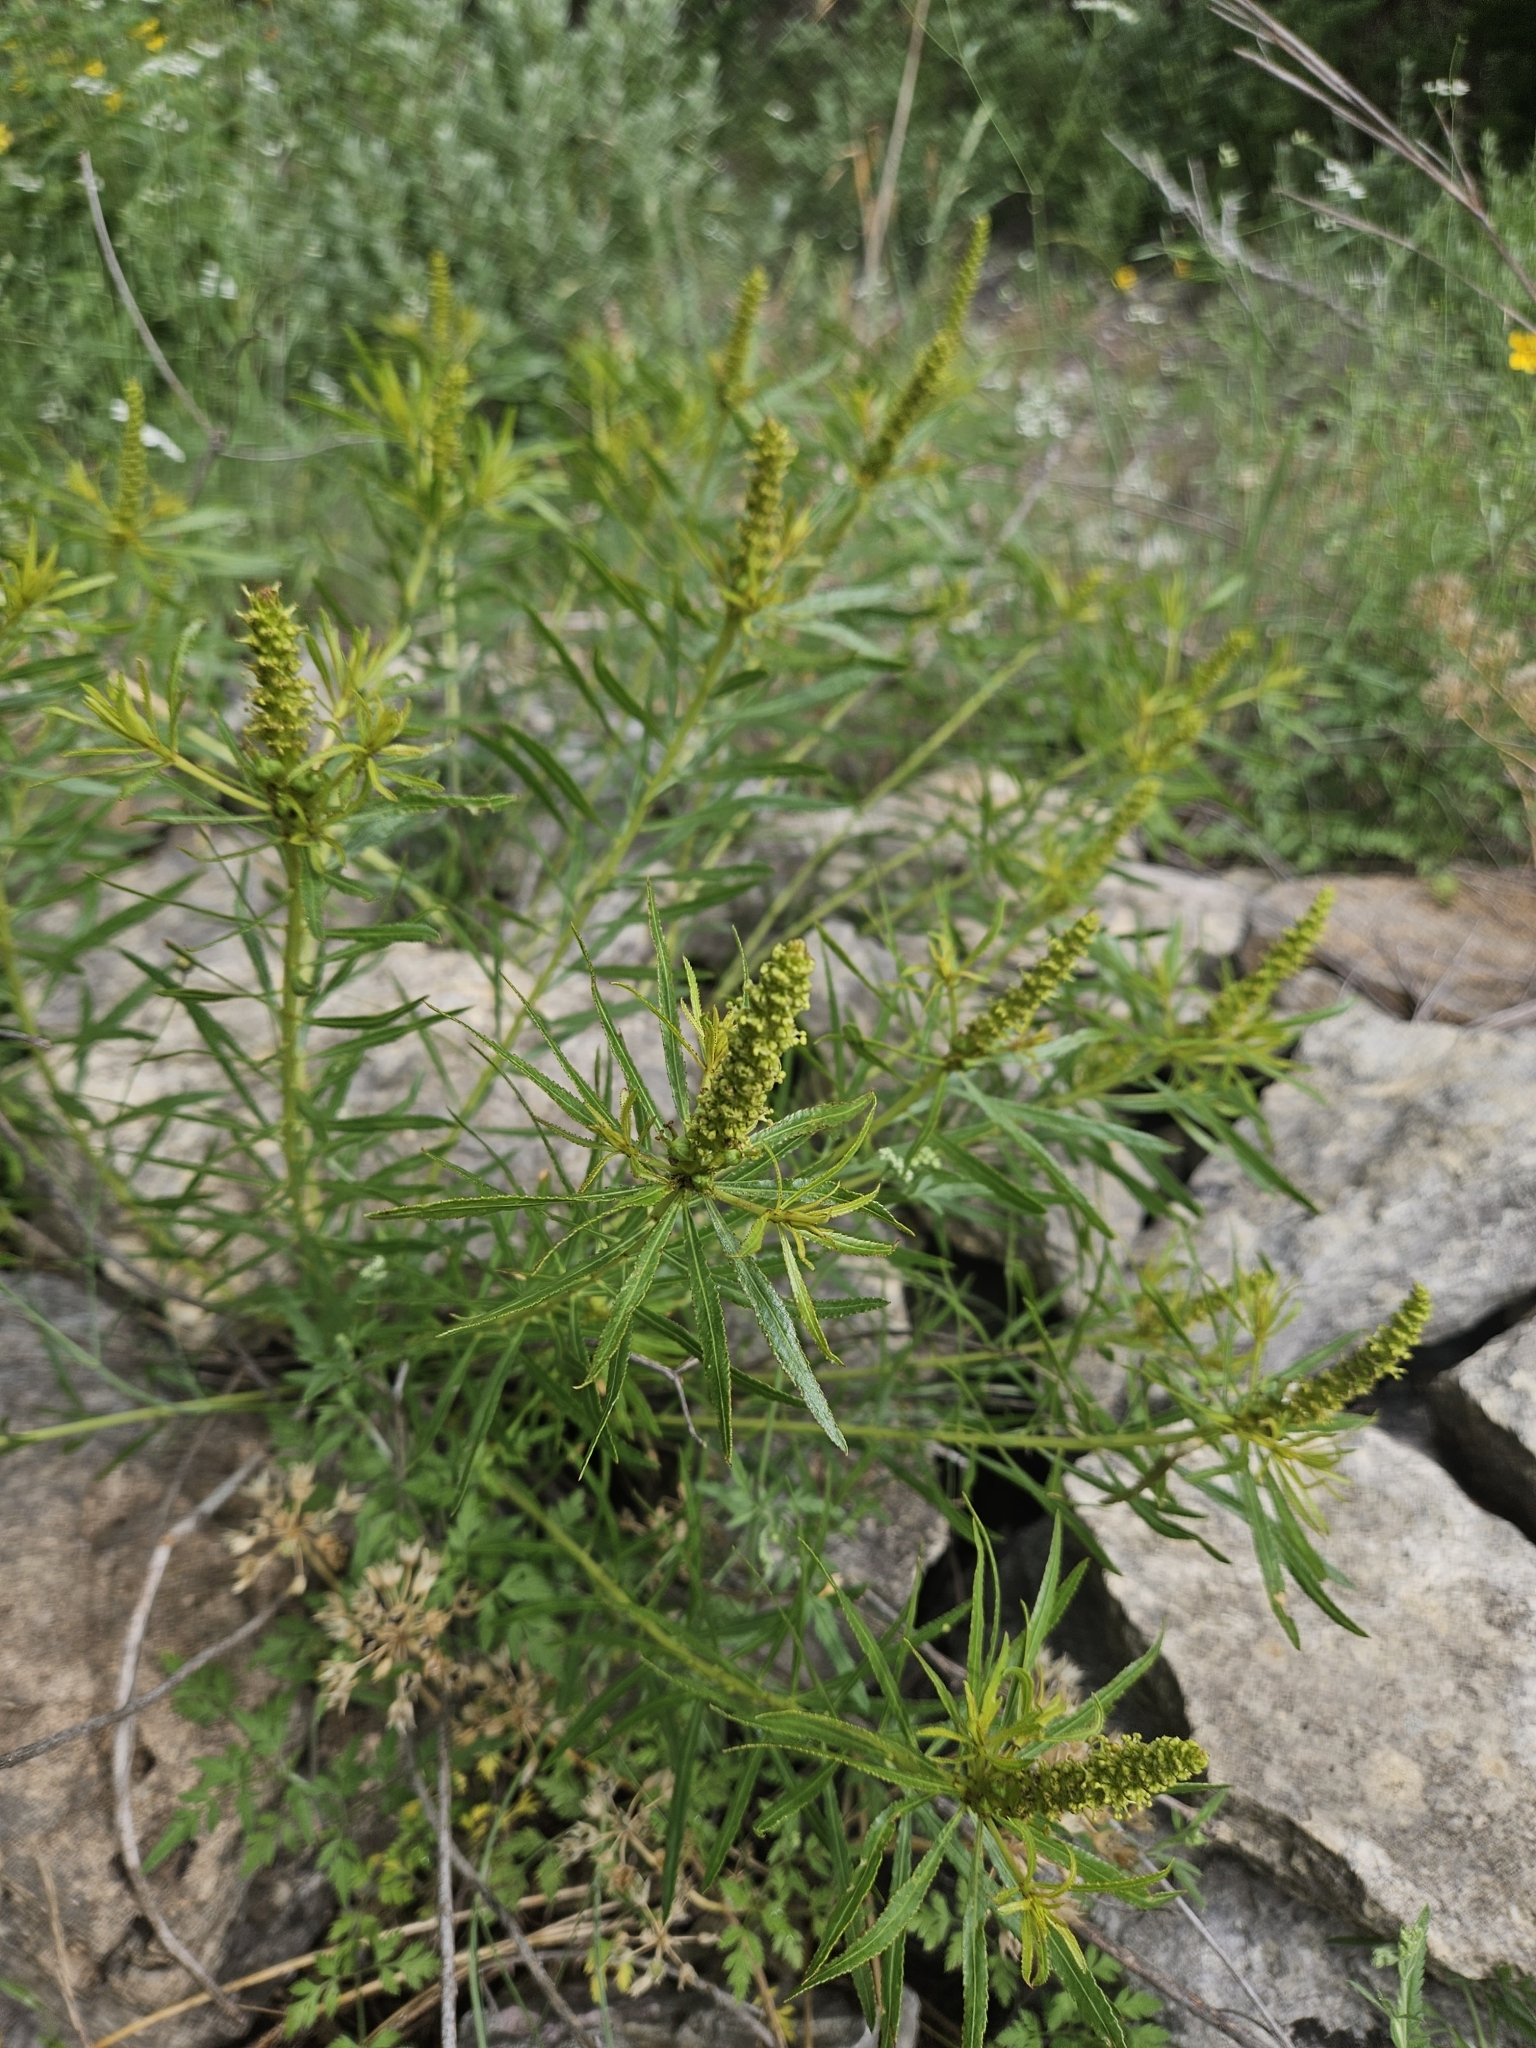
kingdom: Plantae
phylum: Tracheophyta
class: Magnoliopsida
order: Malpighiales
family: Euphorbiaceae
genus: Stillingia
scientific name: Stillingia texana
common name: Texas stillingia
